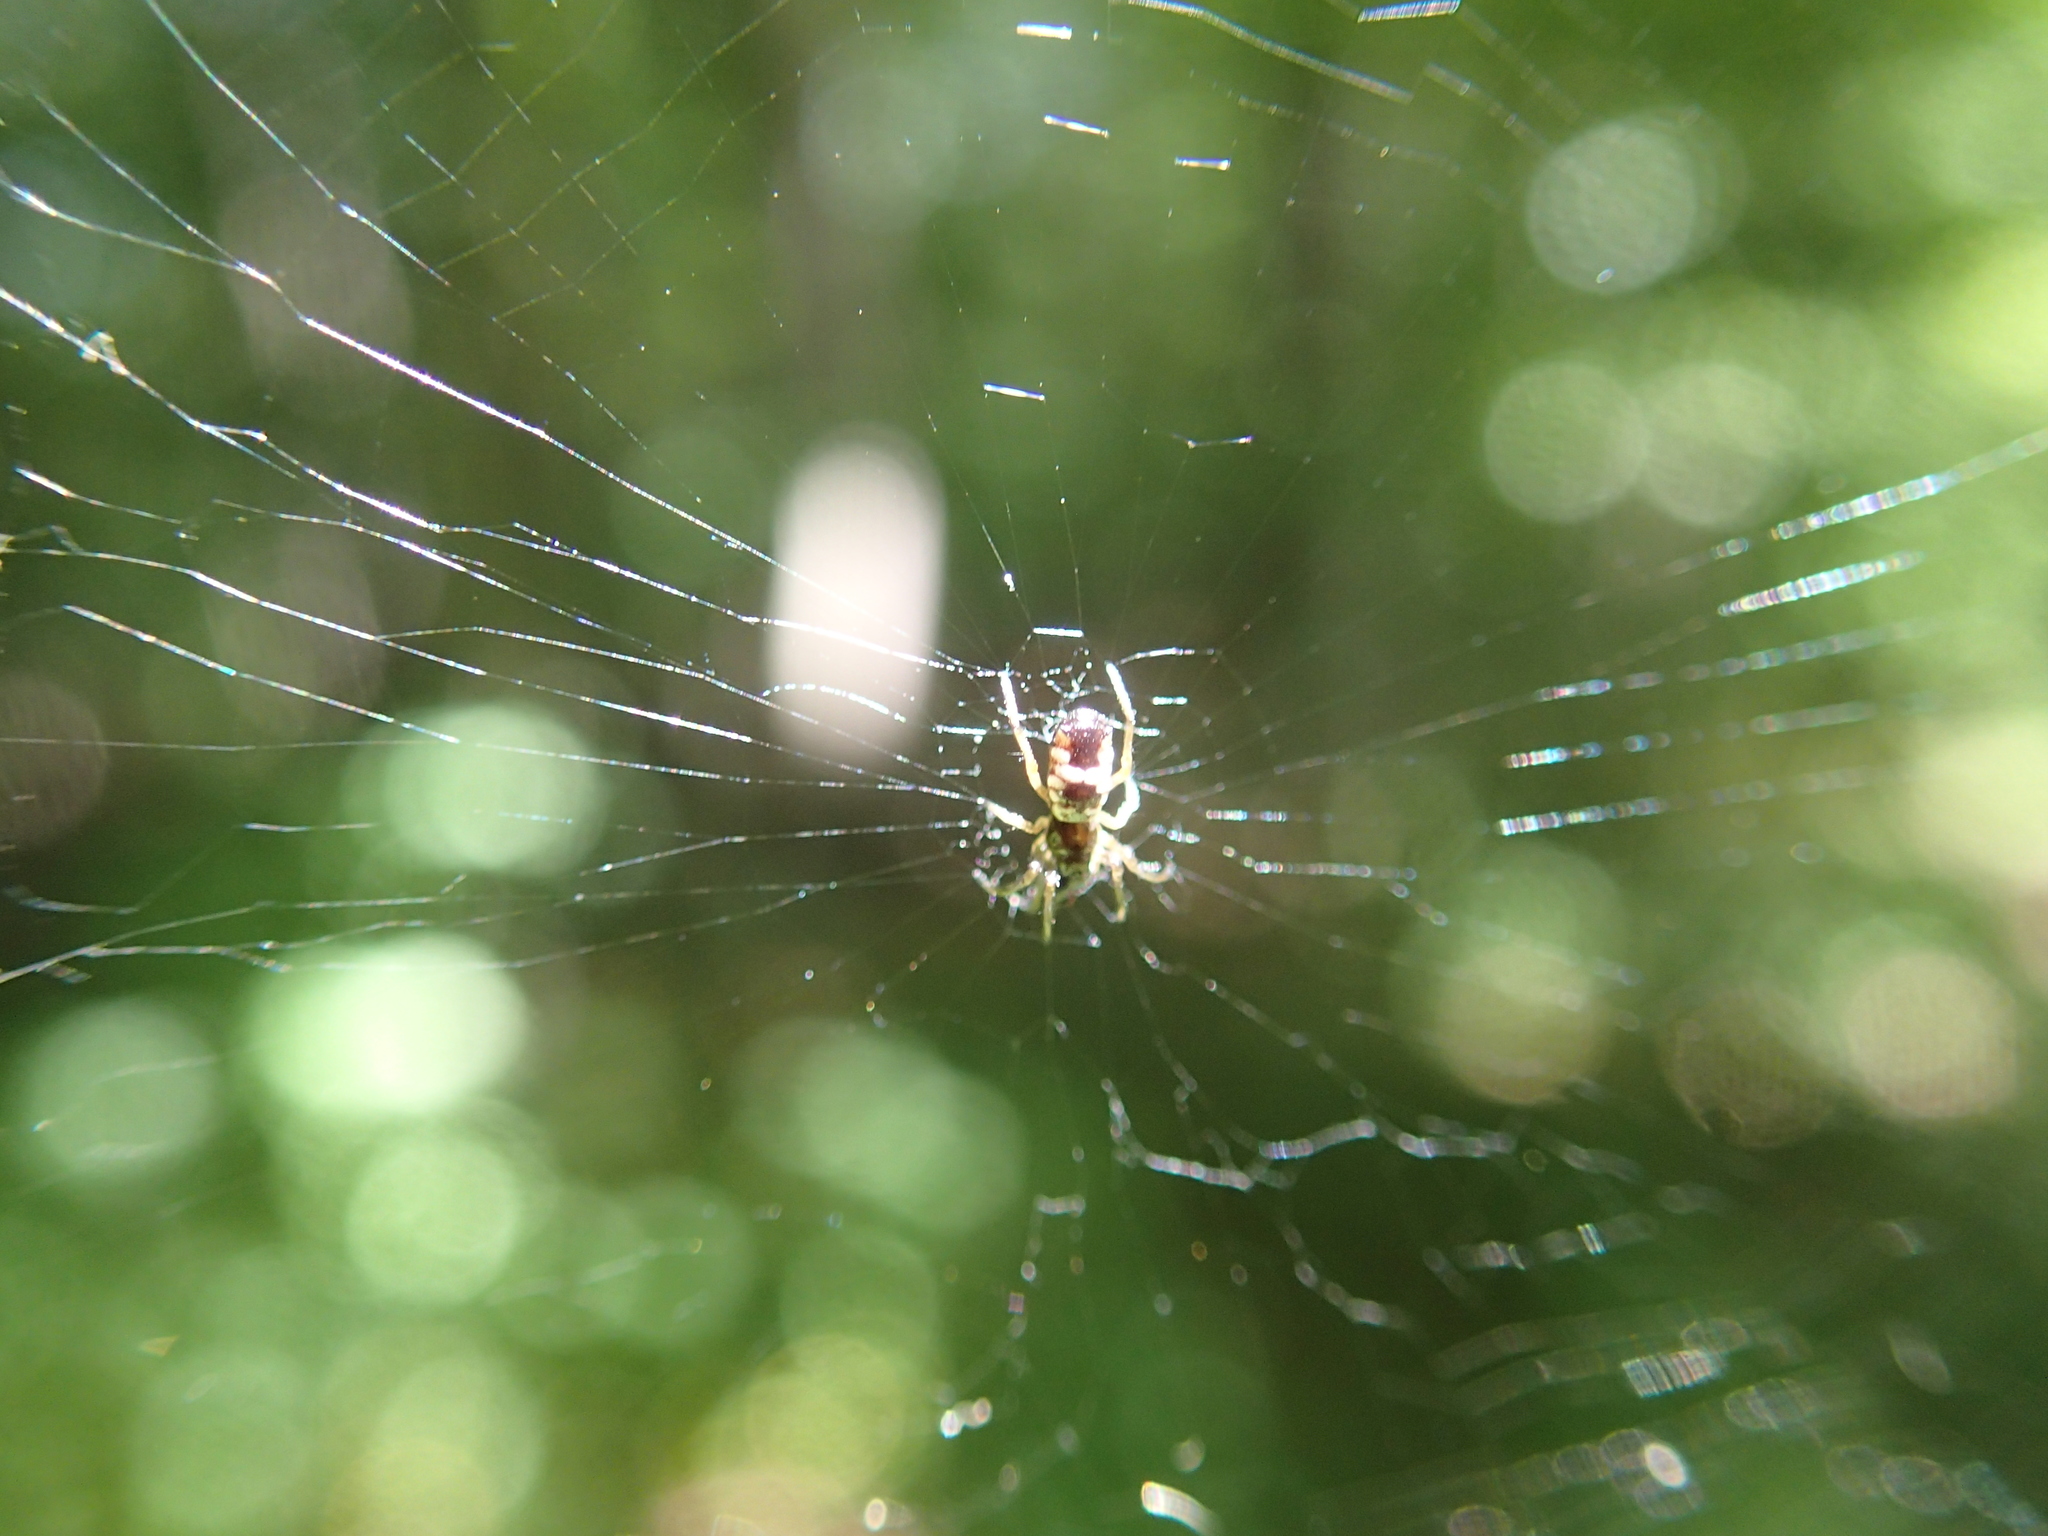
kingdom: Animalia
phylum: Arthropoda
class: Arachnida
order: Araneae
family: Araneidae
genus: Micrathena
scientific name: Micrathena mitrata
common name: Orb weavers
